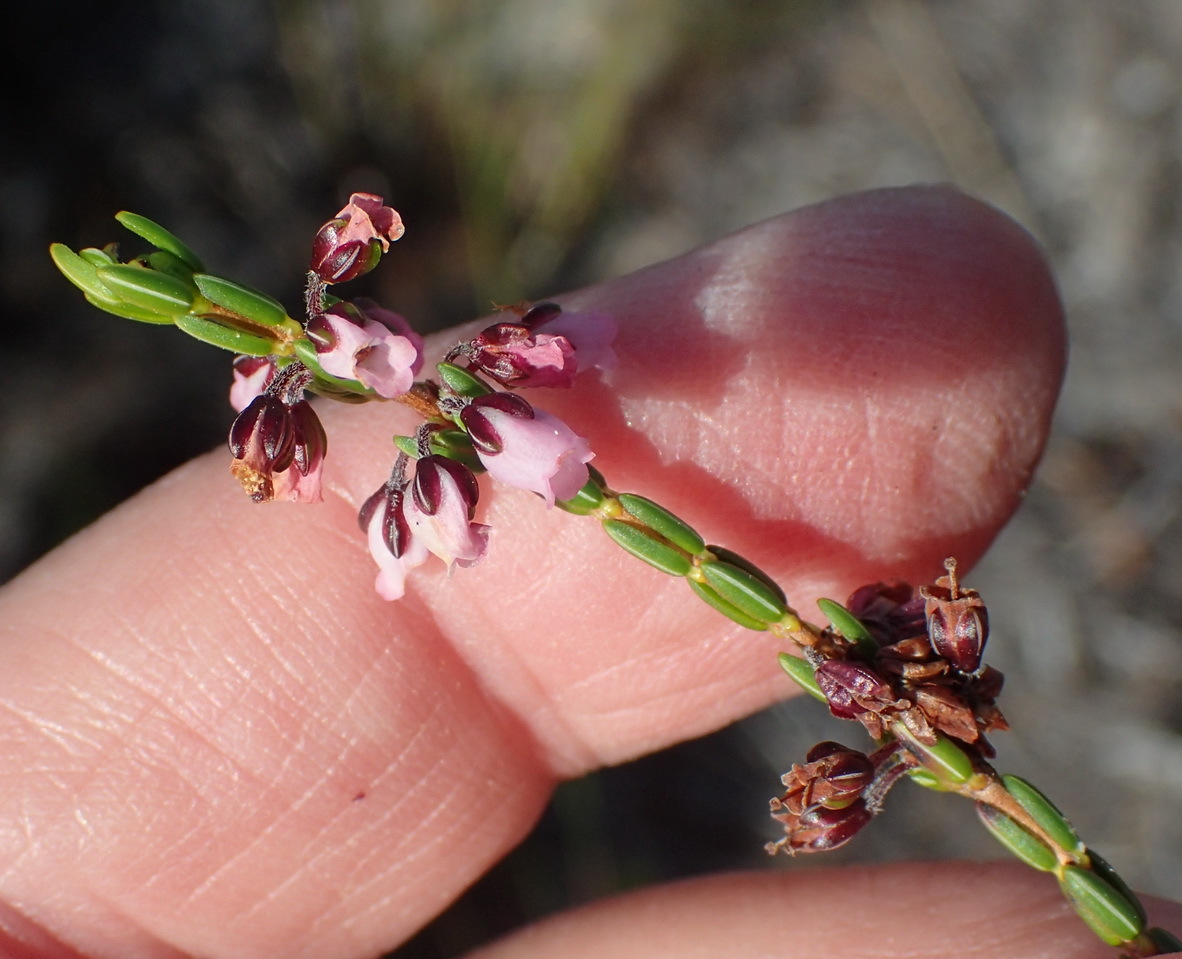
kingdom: Plantae
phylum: Tracheophyta
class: Magnoliopsida
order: Ericales
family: Ericaceae
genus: Erica
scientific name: Erica pulchella
